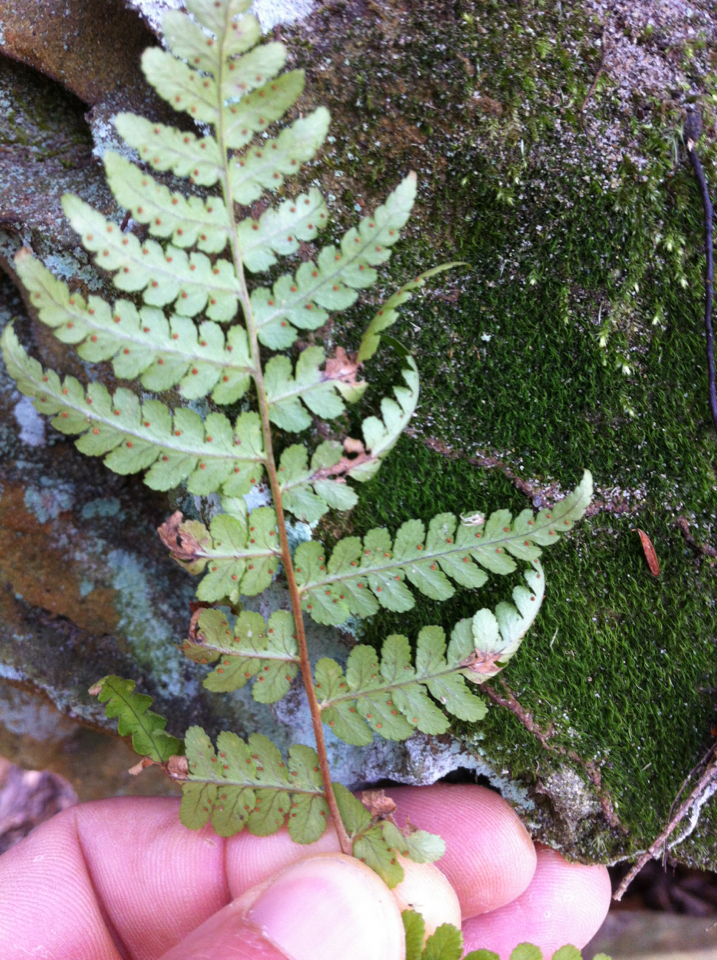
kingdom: Plantae
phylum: Tracheophyta
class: Polypodiopsida
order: Polypodiales
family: Dryopteridaceae
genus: Dryopteris
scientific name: Dryopteris marginalis
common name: Marginal wood fern
